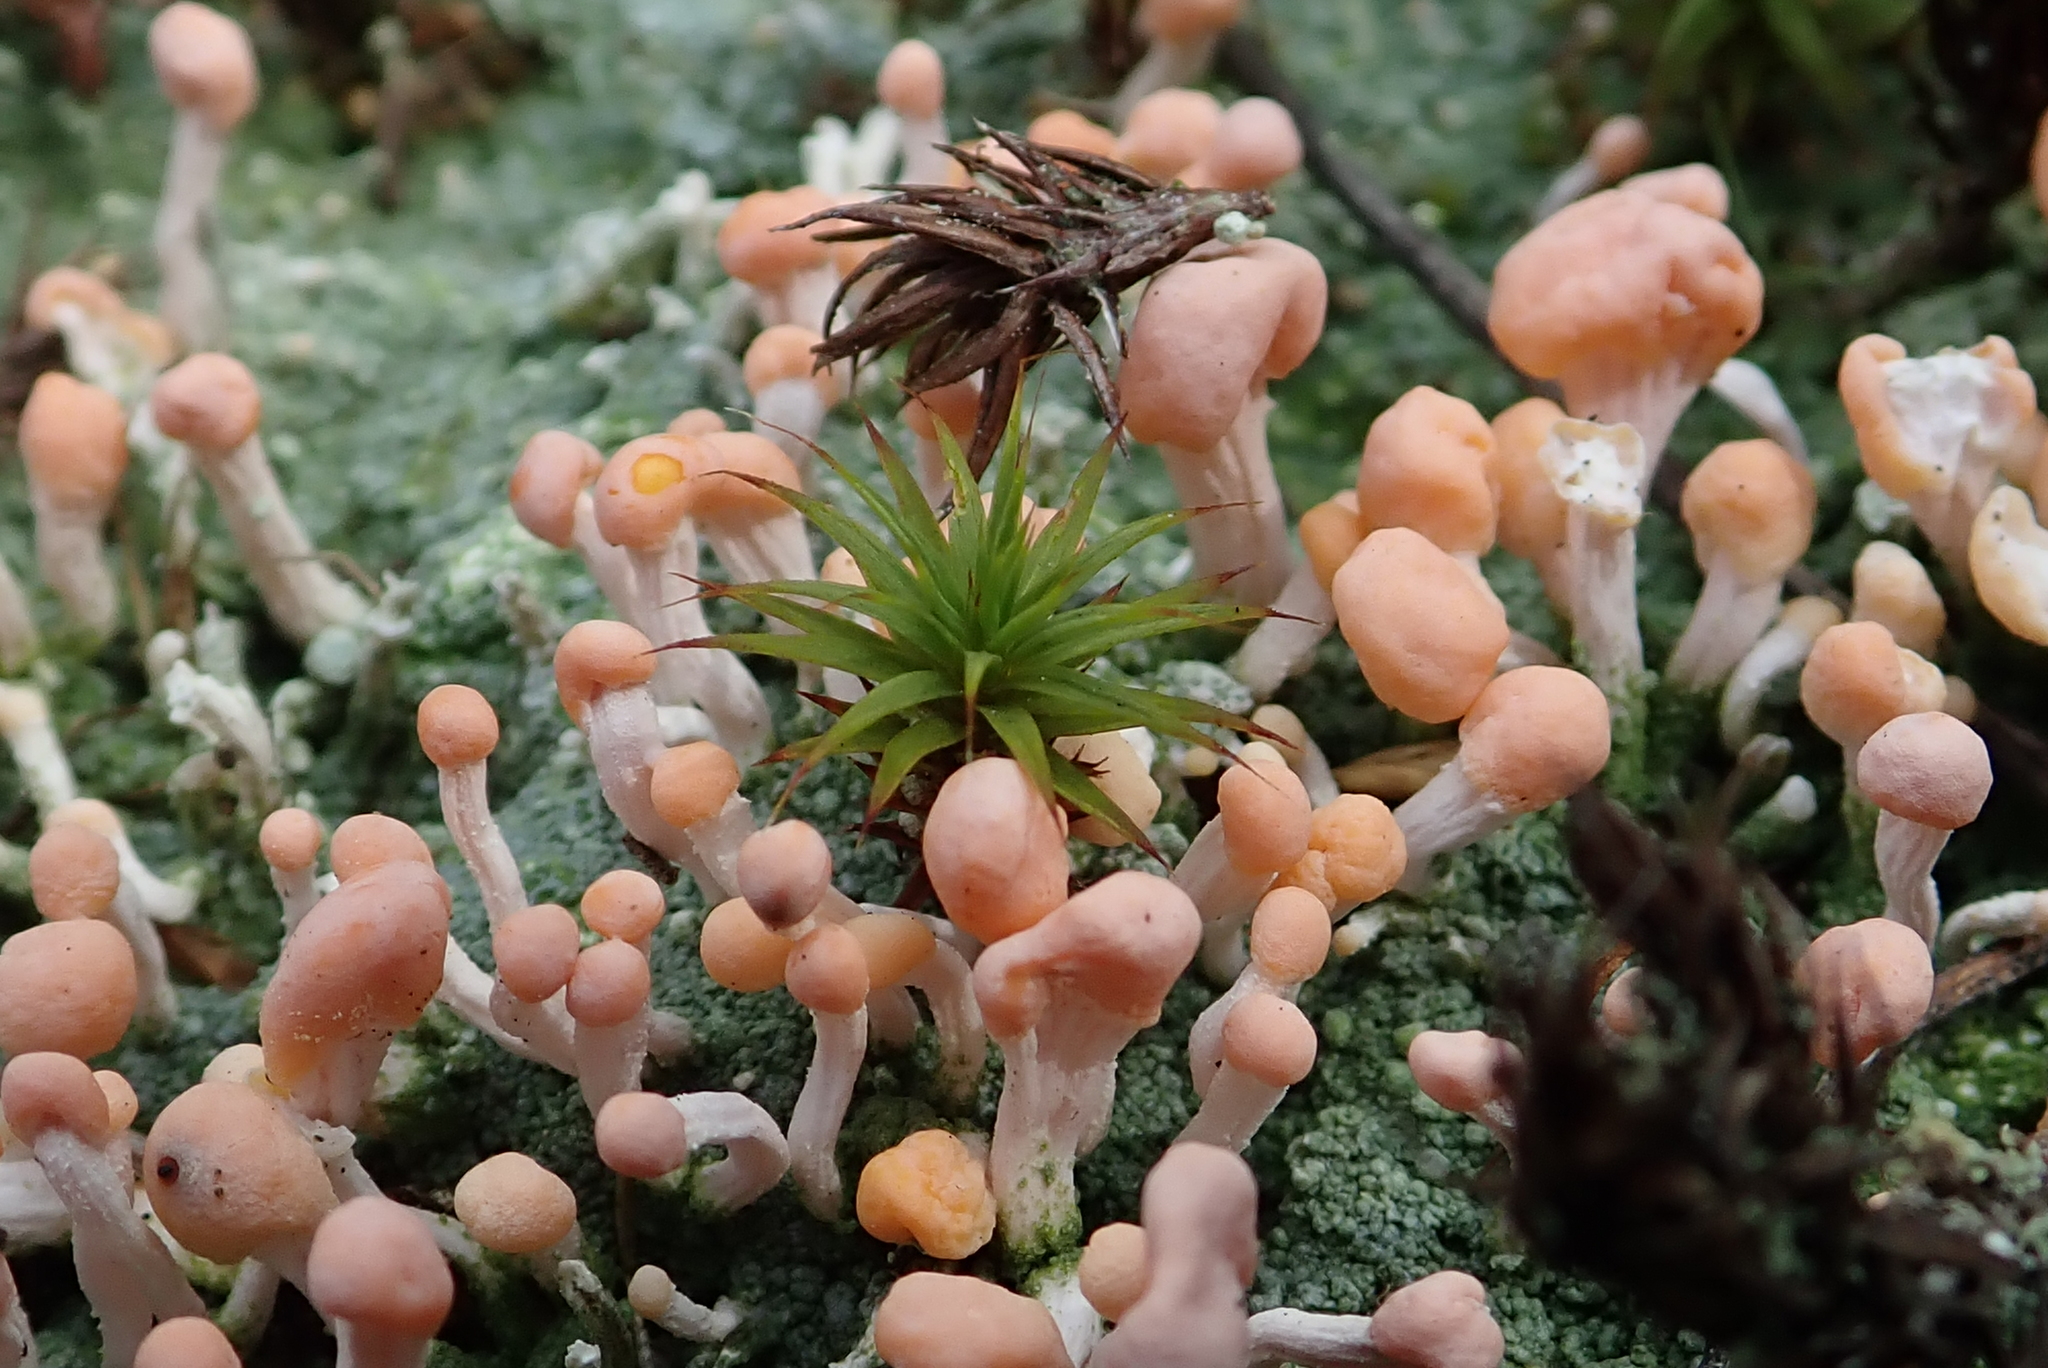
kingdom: Fungi
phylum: Ascomycota
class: Lecanoromycetes
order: Pertusariales
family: Icmadophilaceae
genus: Dibaeis
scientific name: Dibaeis baeomyces
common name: Pink earth lichen
